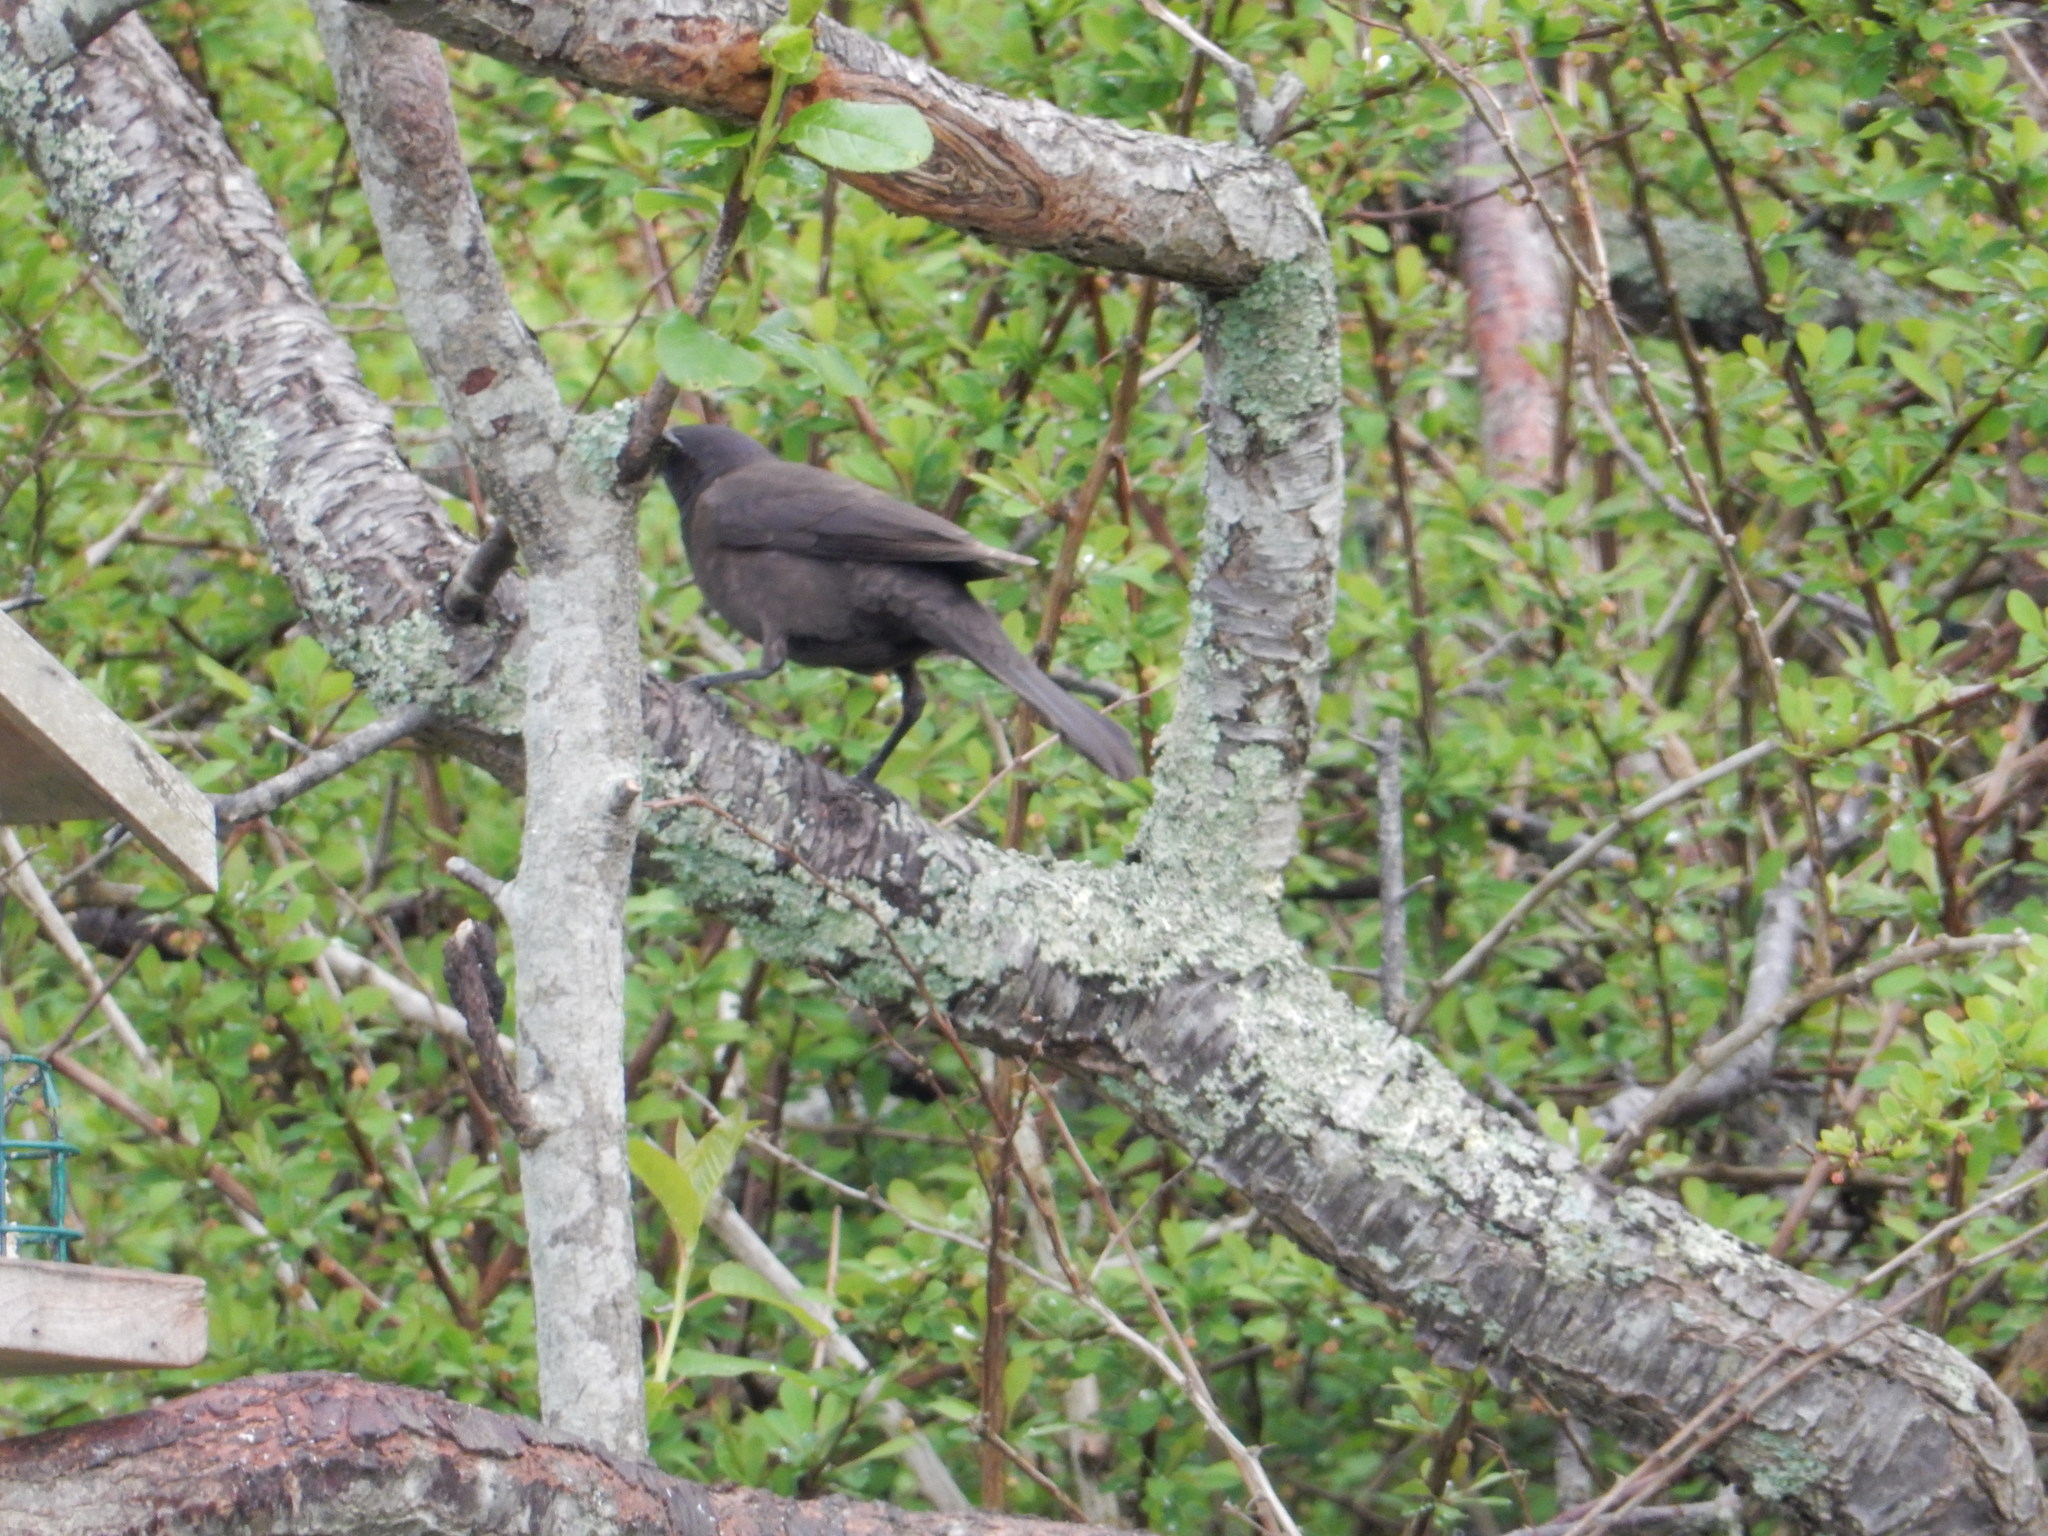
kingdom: Animalia
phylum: Chordata
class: Aves
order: Passeriformes
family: Icteridae
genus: Quiscalus
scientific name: Quiscalus quiscula
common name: Common grackle
